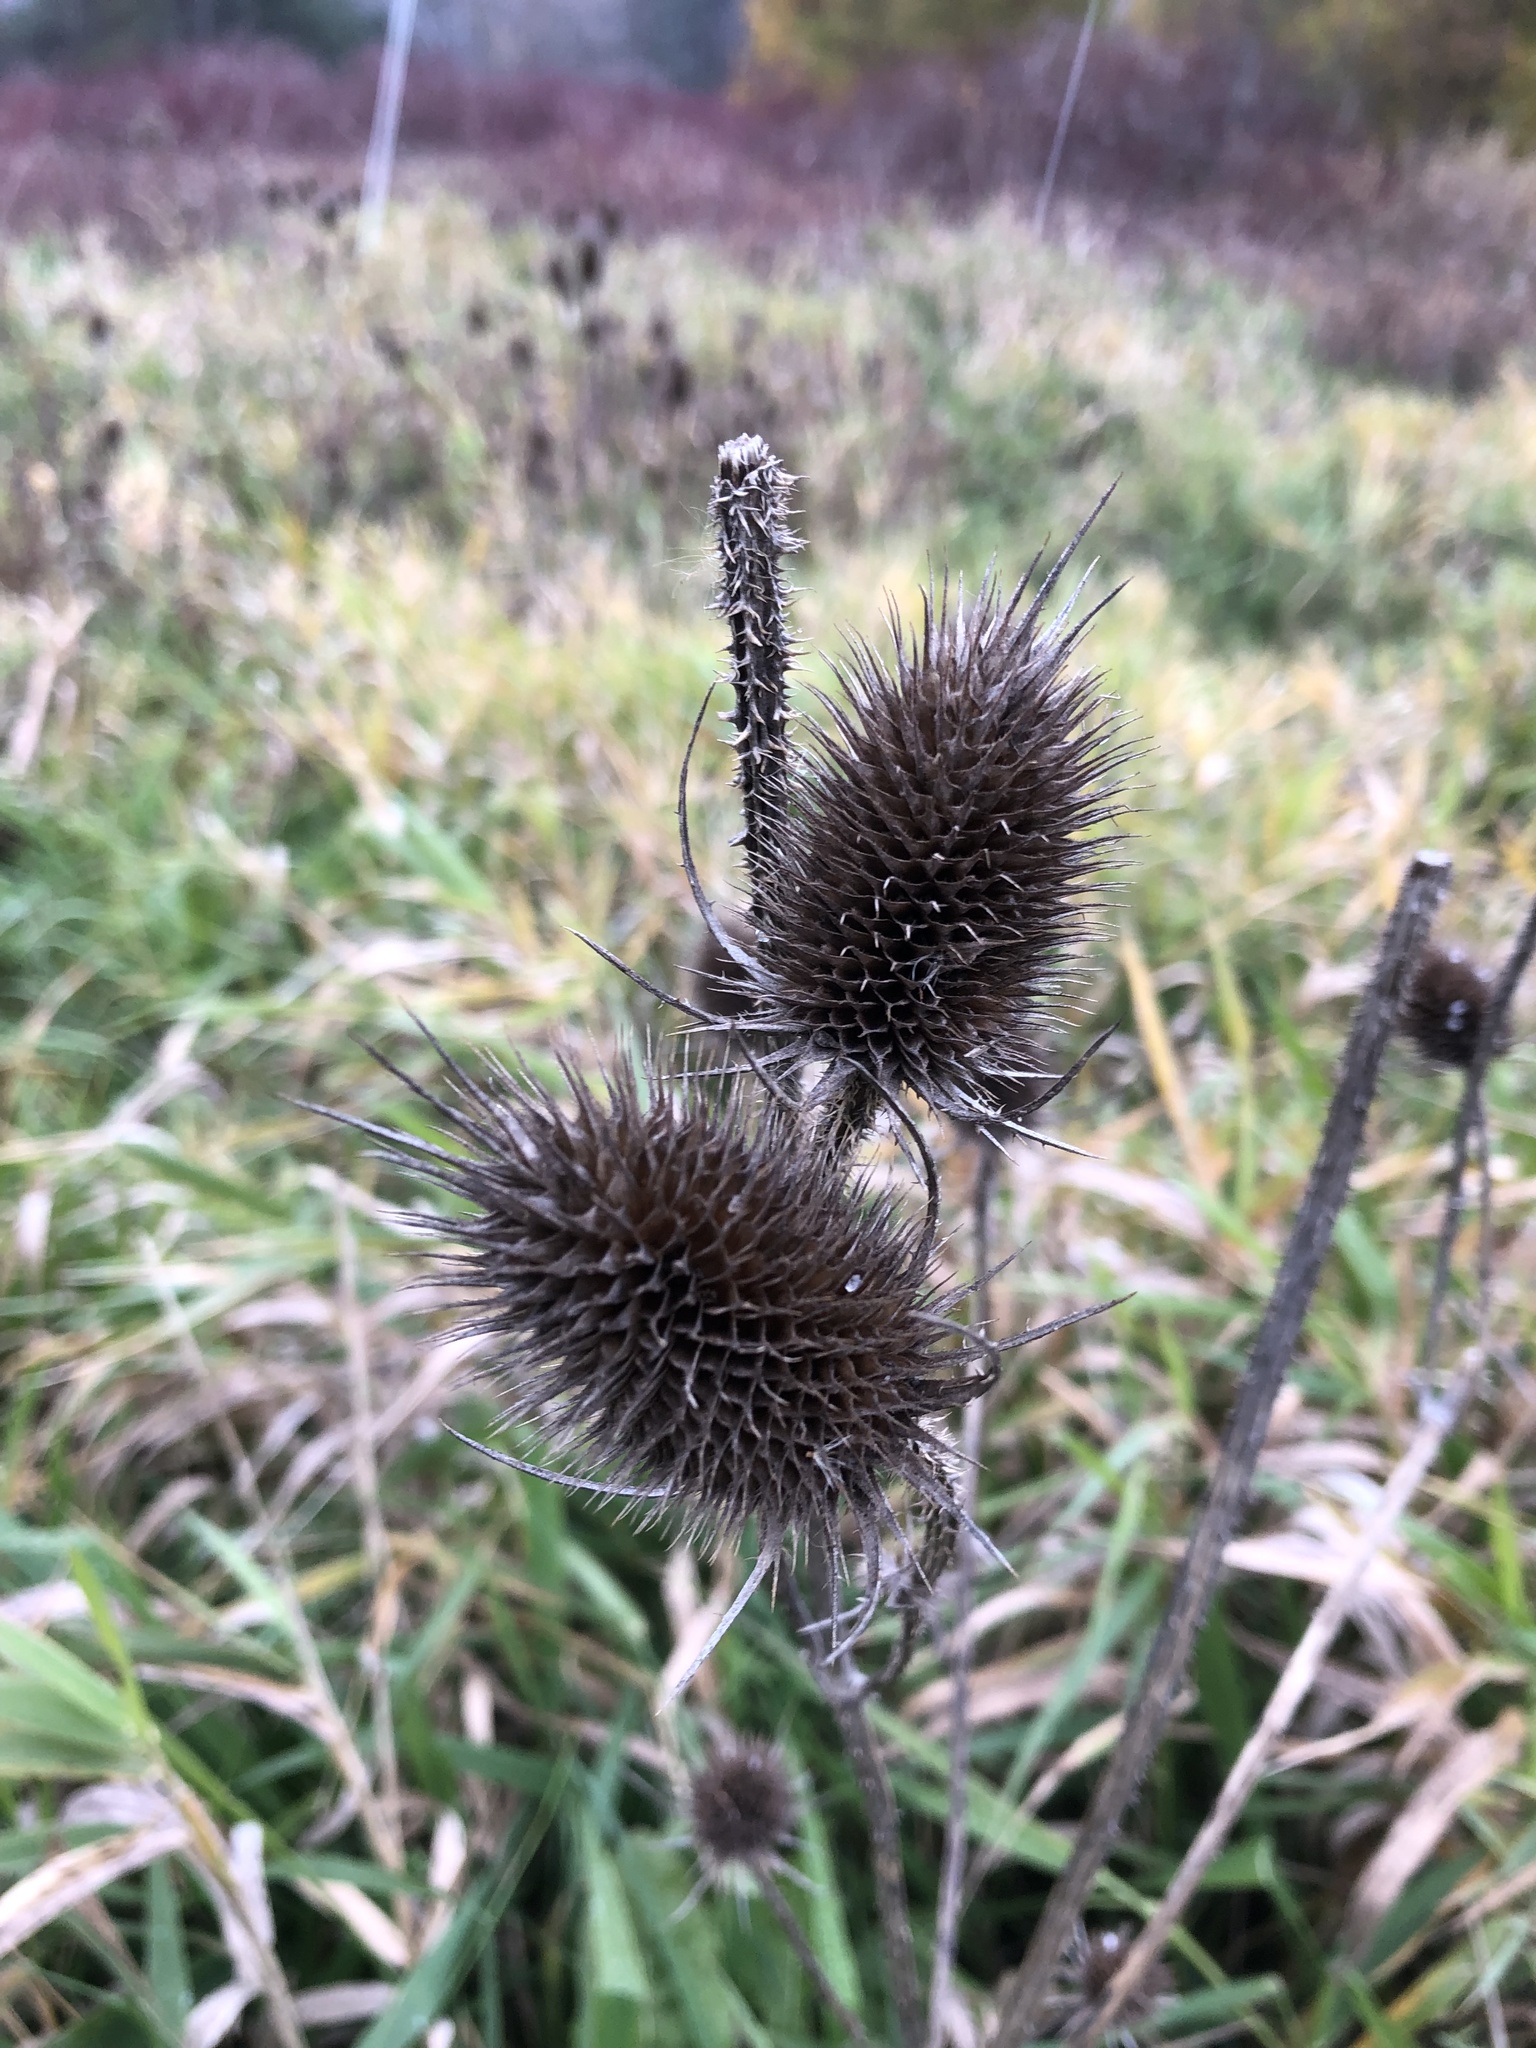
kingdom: Plantae
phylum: Tracheophyta
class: Magnoliopsida
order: Dipsacales
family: Caprifoliaceae
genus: Dipsacus
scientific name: Dipsacus fullonum
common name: Teasel
